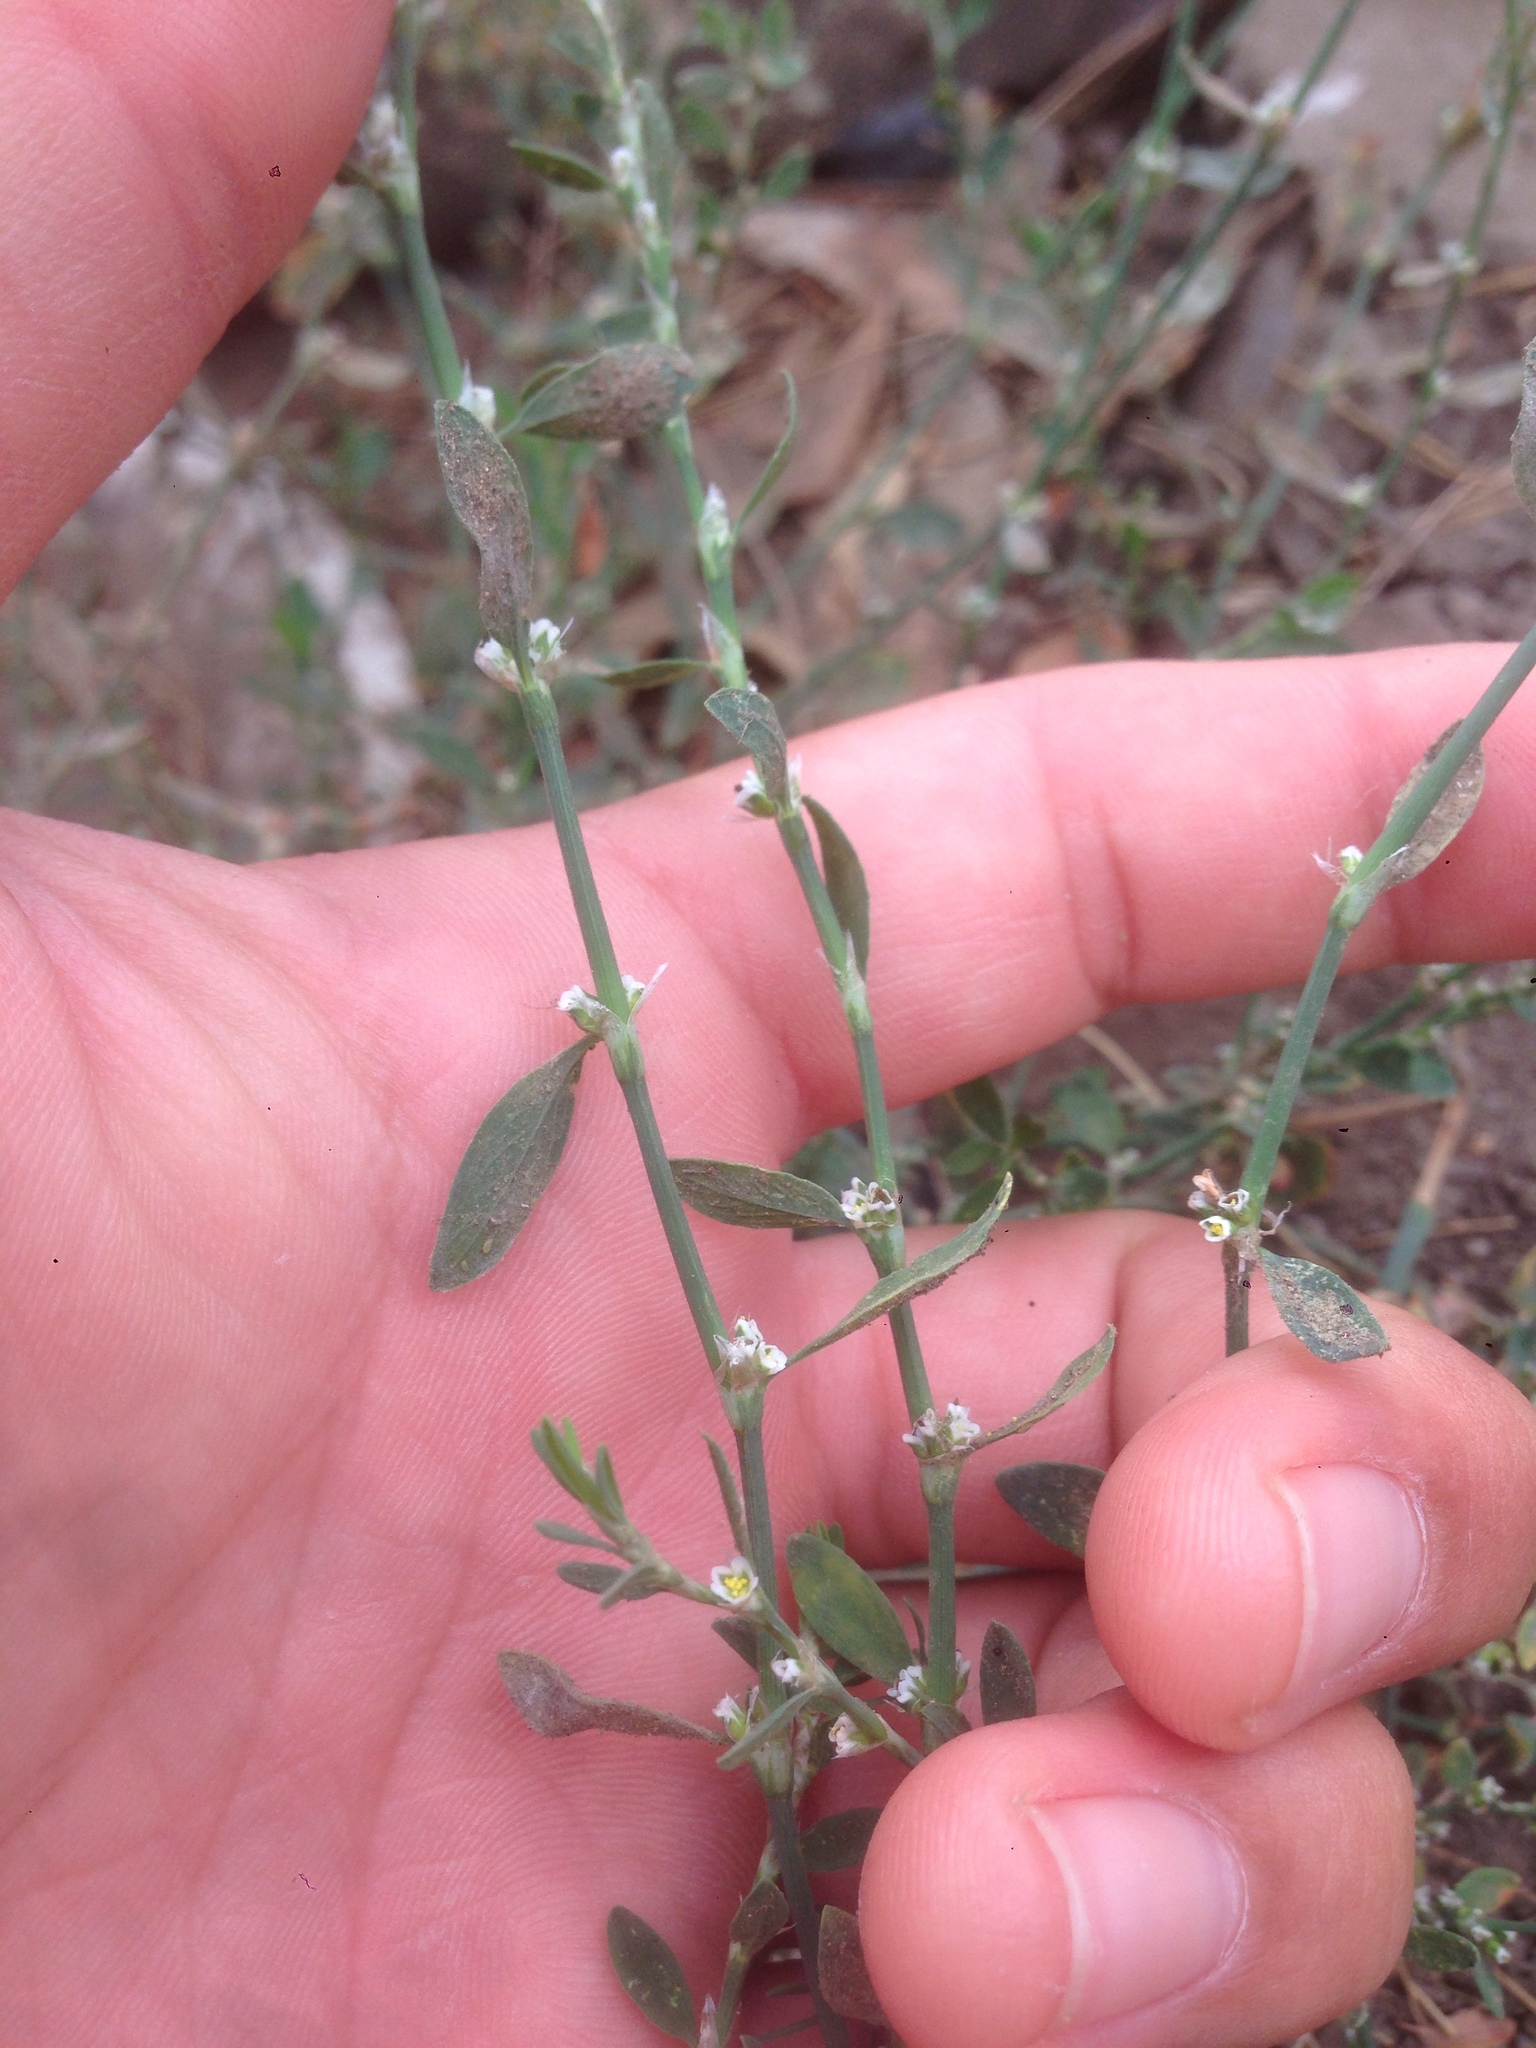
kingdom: Plantae
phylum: Tracheophyta
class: Magnoliopsida
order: Caryophyllales
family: Polygonaceae
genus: Polygonum
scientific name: Polygonum aviculare
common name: Prostrate knotweed
